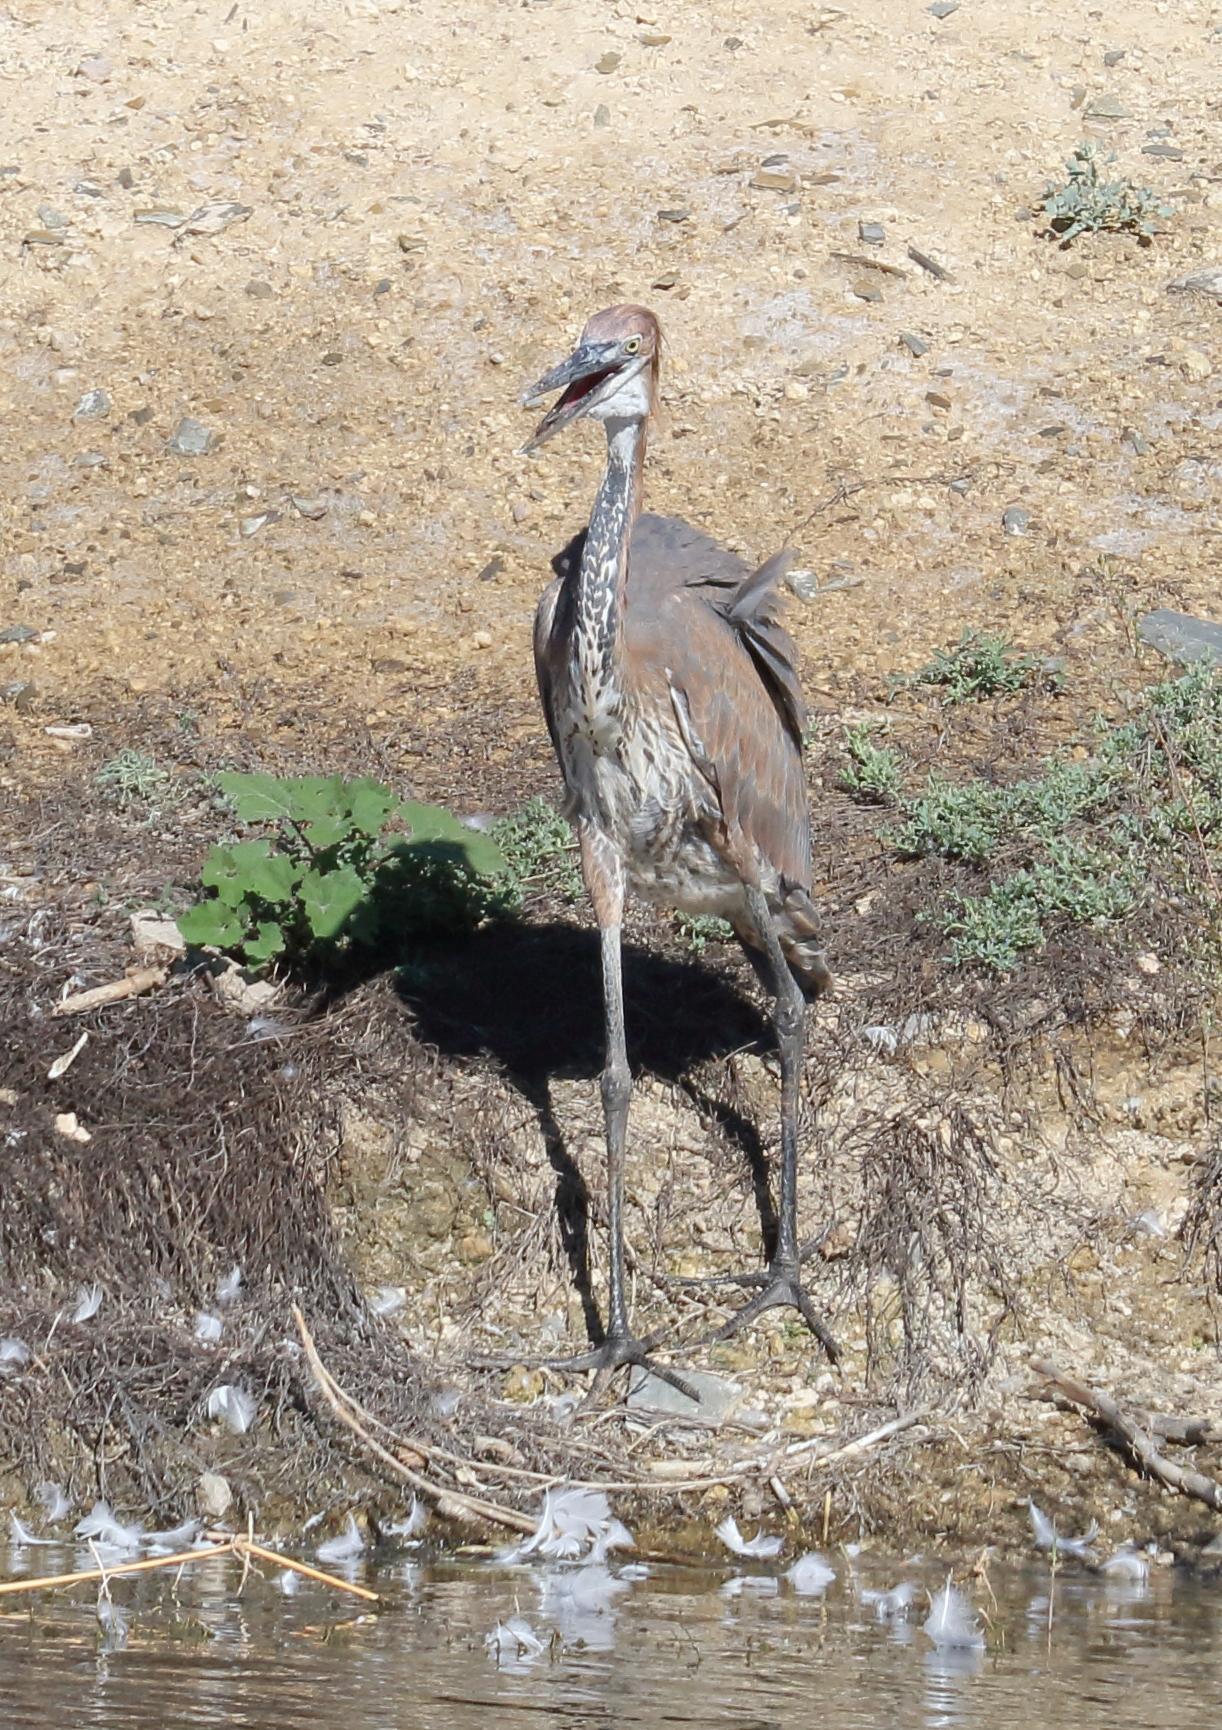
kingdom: Animalia
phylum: Chordata
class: Aves
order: Pelecaniformes
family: Ardeidae
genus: Ardea
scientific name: Ardea goliath
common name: Goliath heron
